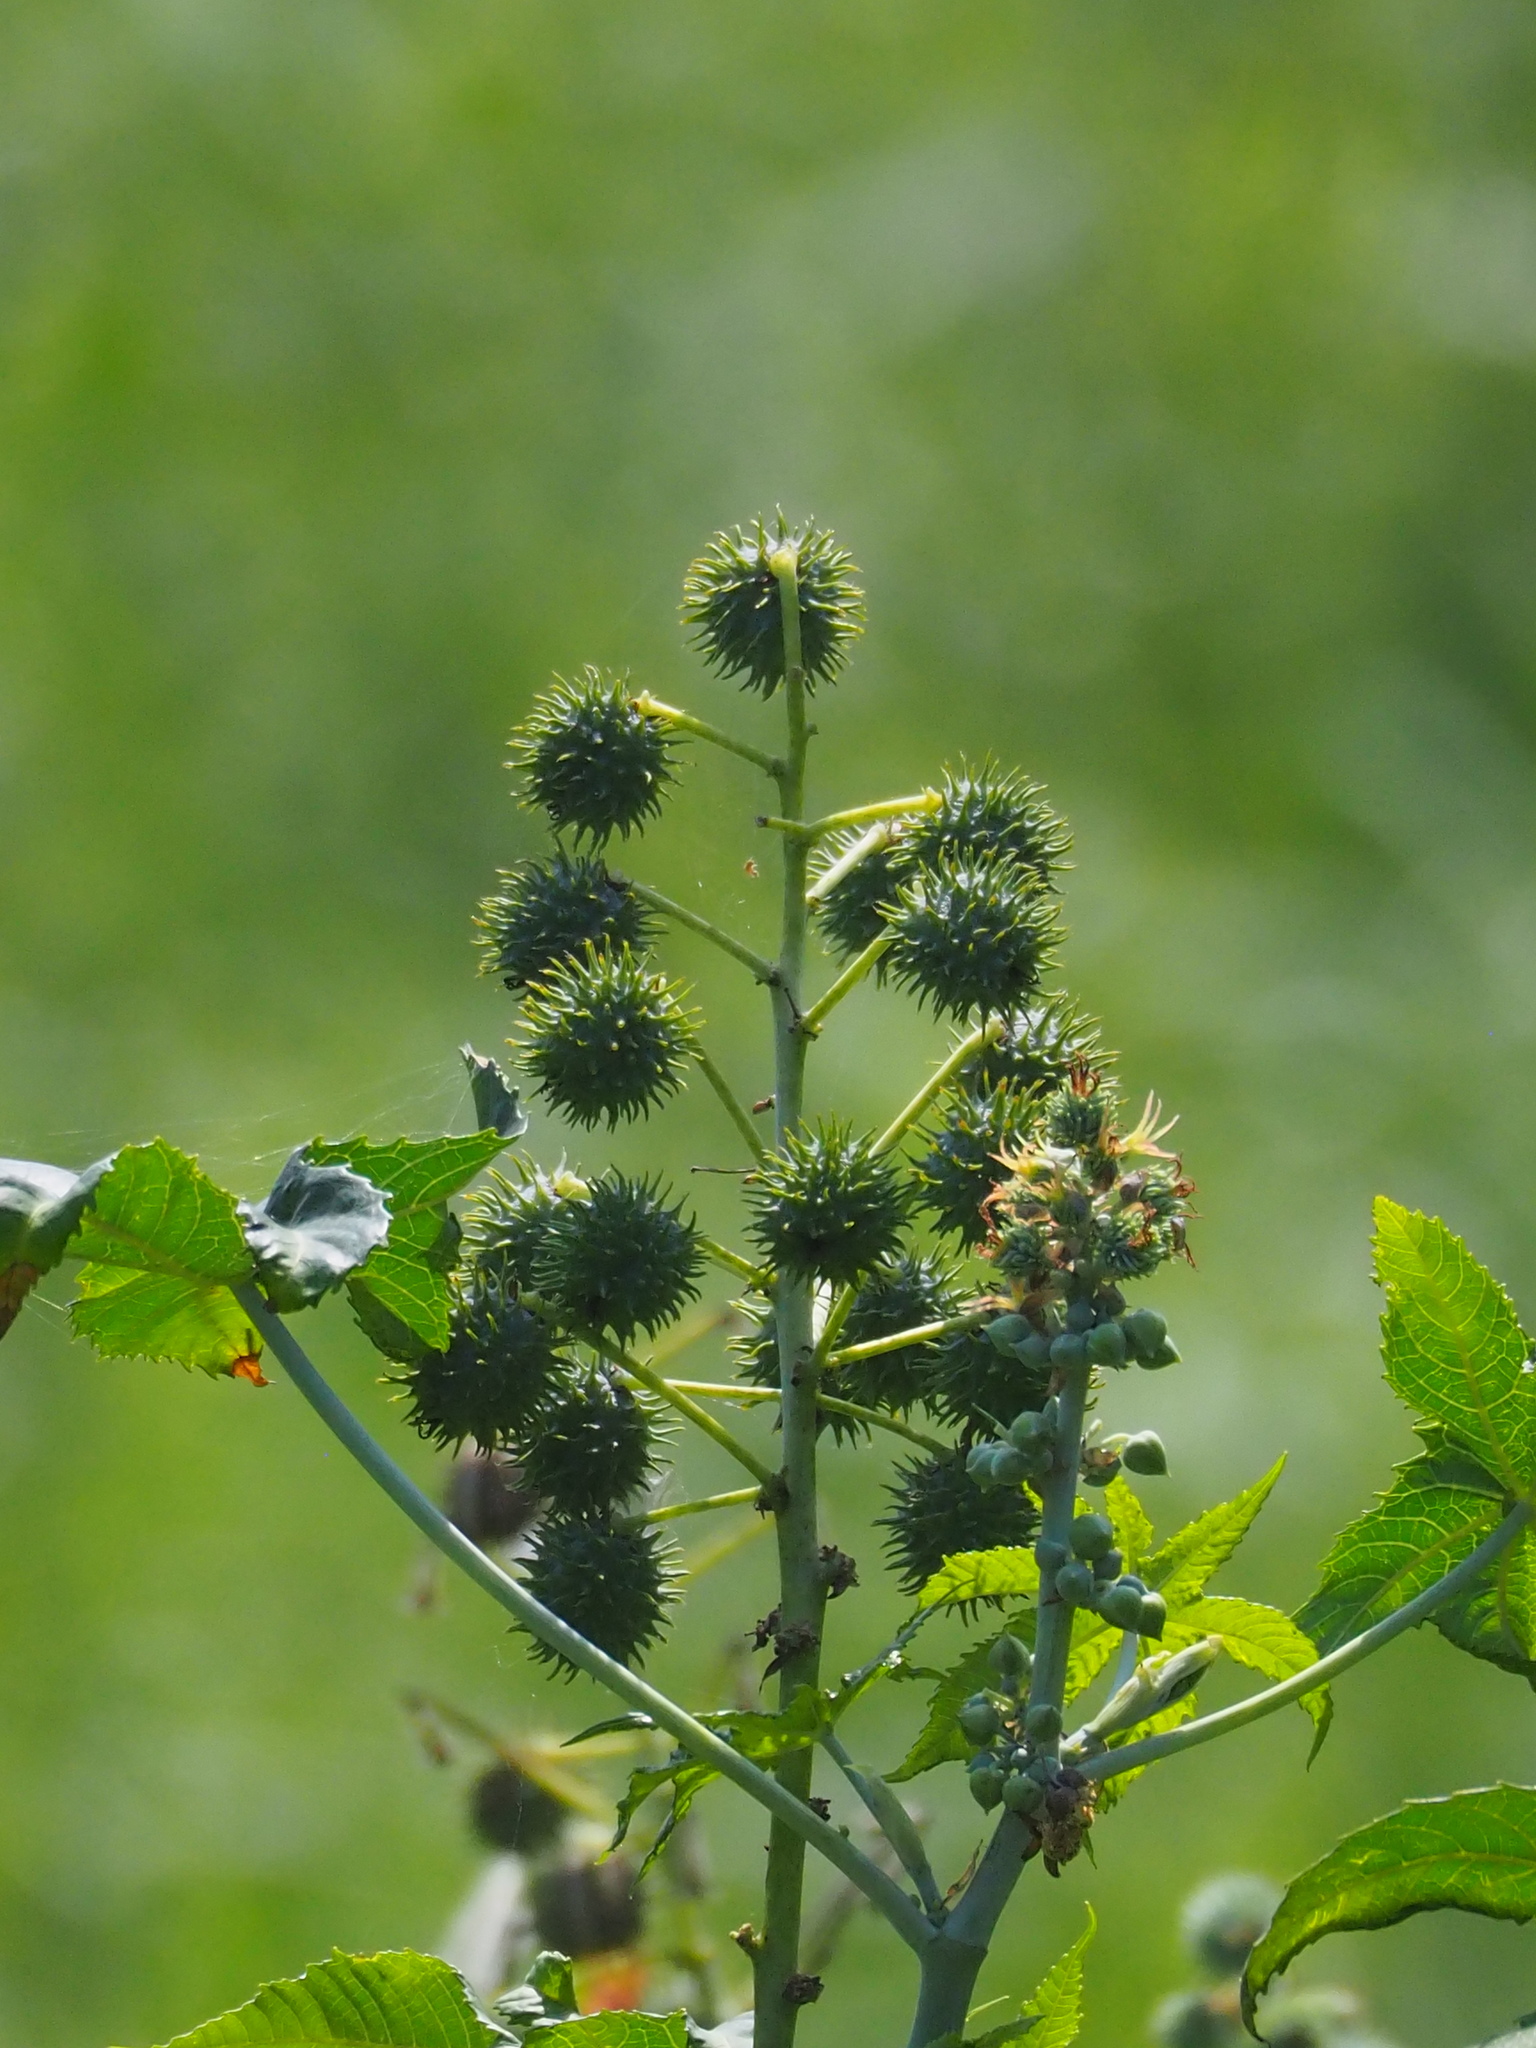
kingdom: Plantae
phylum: Tracheophyta
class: Magnoliopsida
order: Malpighiales
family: Euphorbiaceae
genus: Ricinus
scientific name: Ricinus communis
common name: Castor-oil-plant
